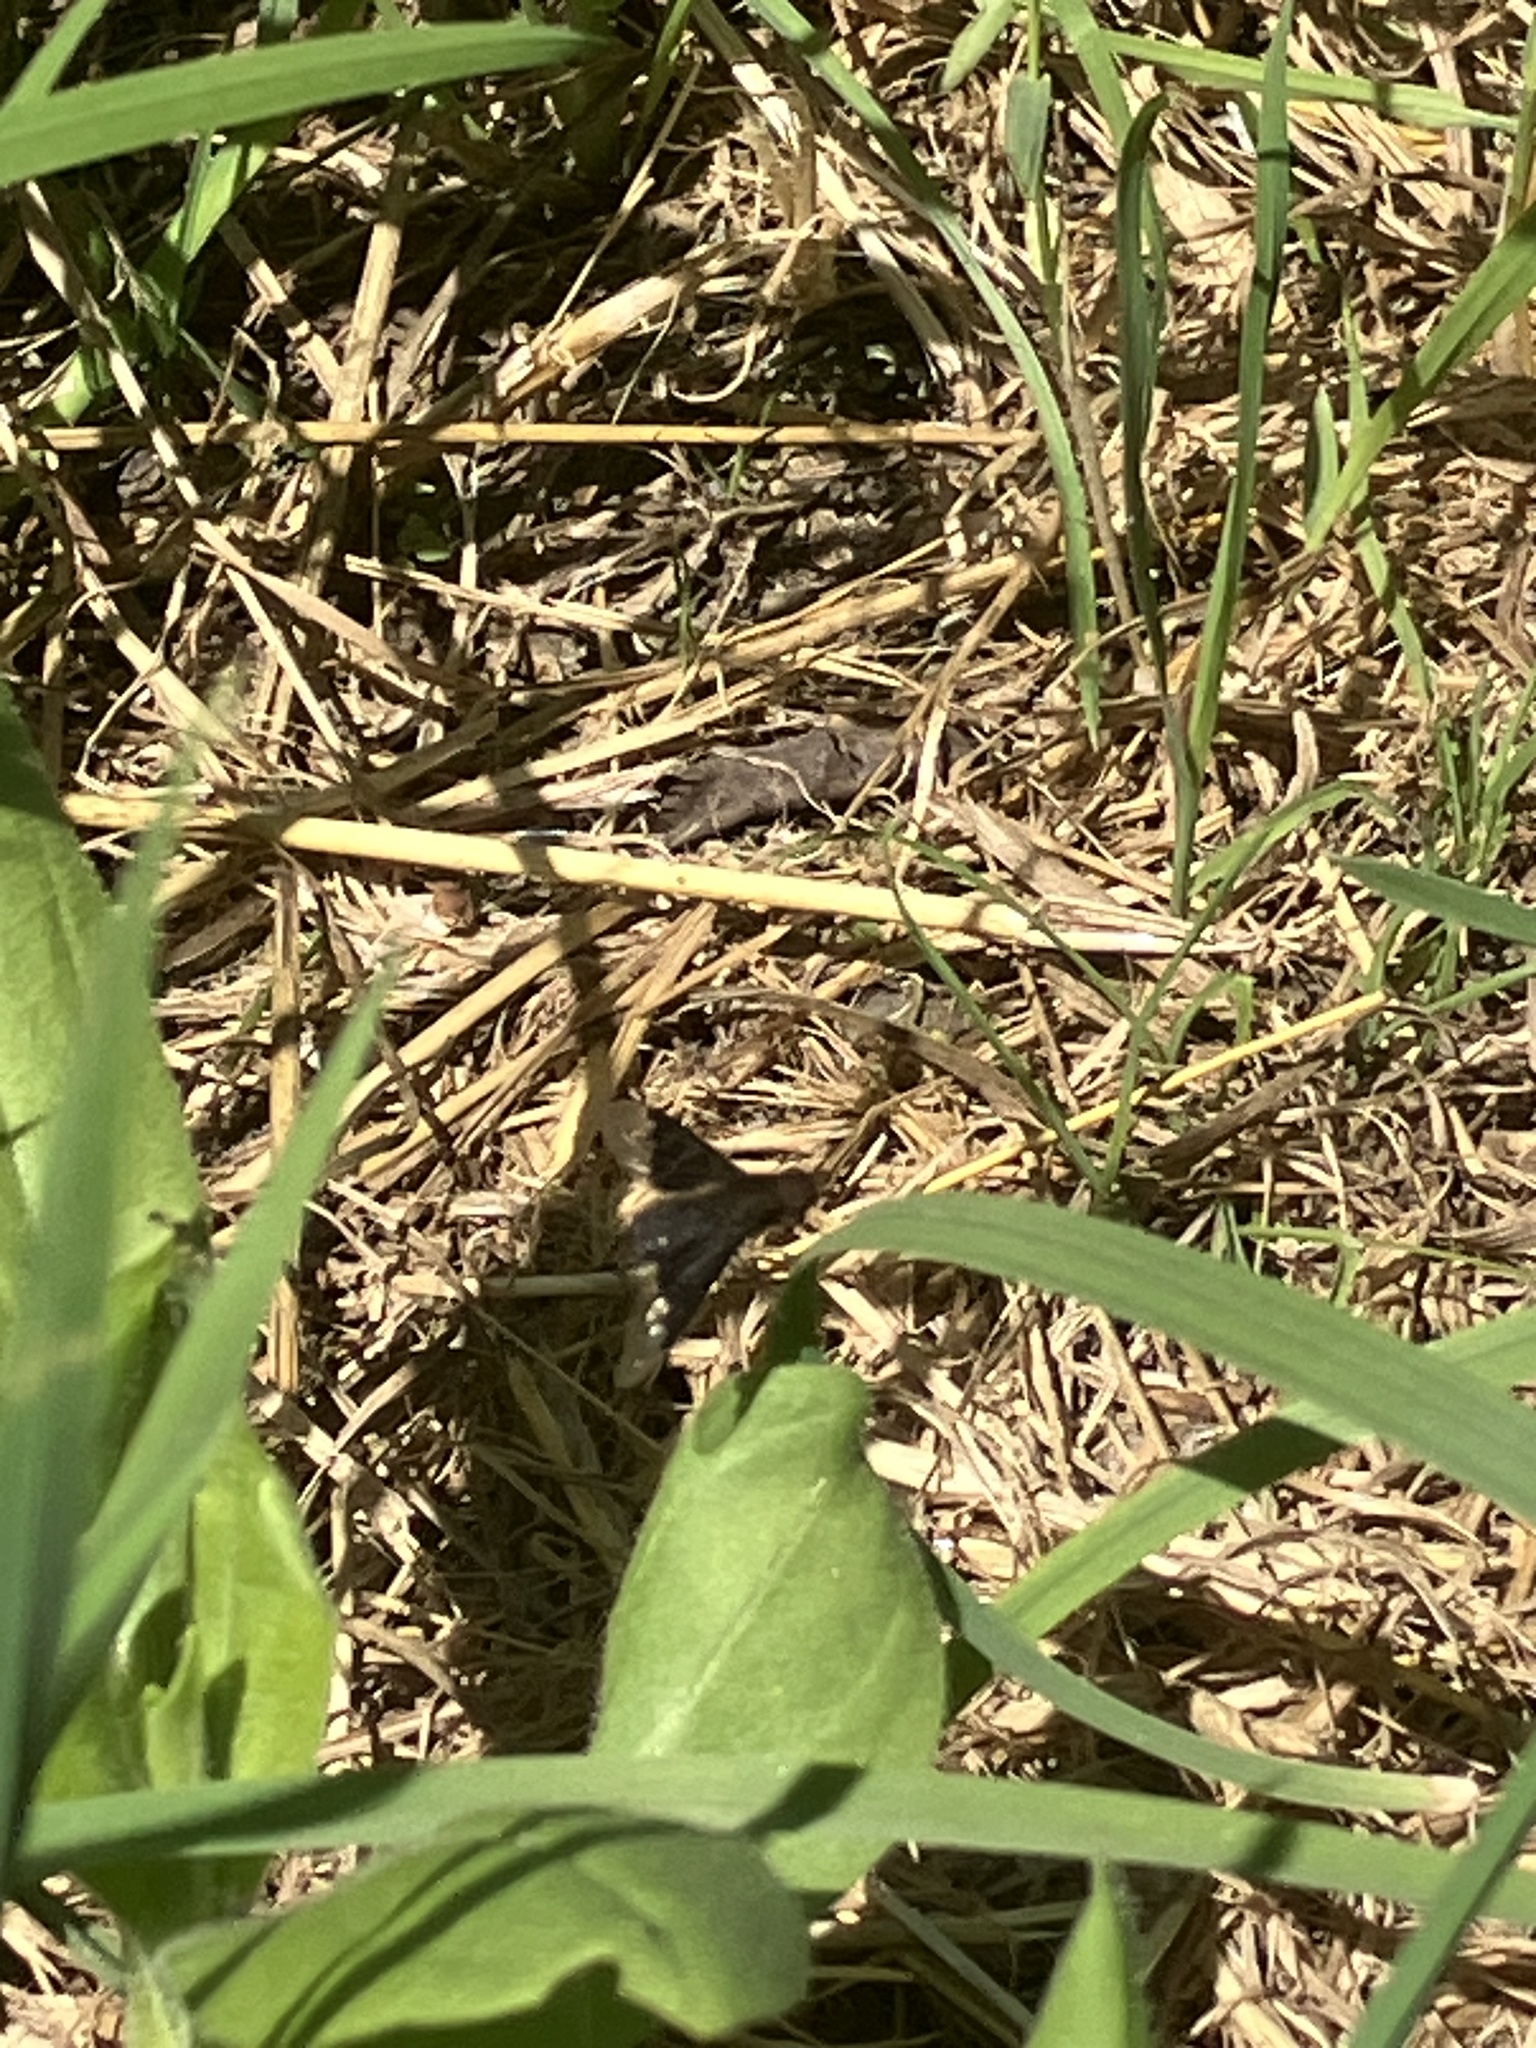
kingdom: Animalia
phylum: Arthropoda
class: Insecta
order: Diptera
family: Bombyliidae
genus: Hemipenthes
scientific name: Hemipenthes morio
